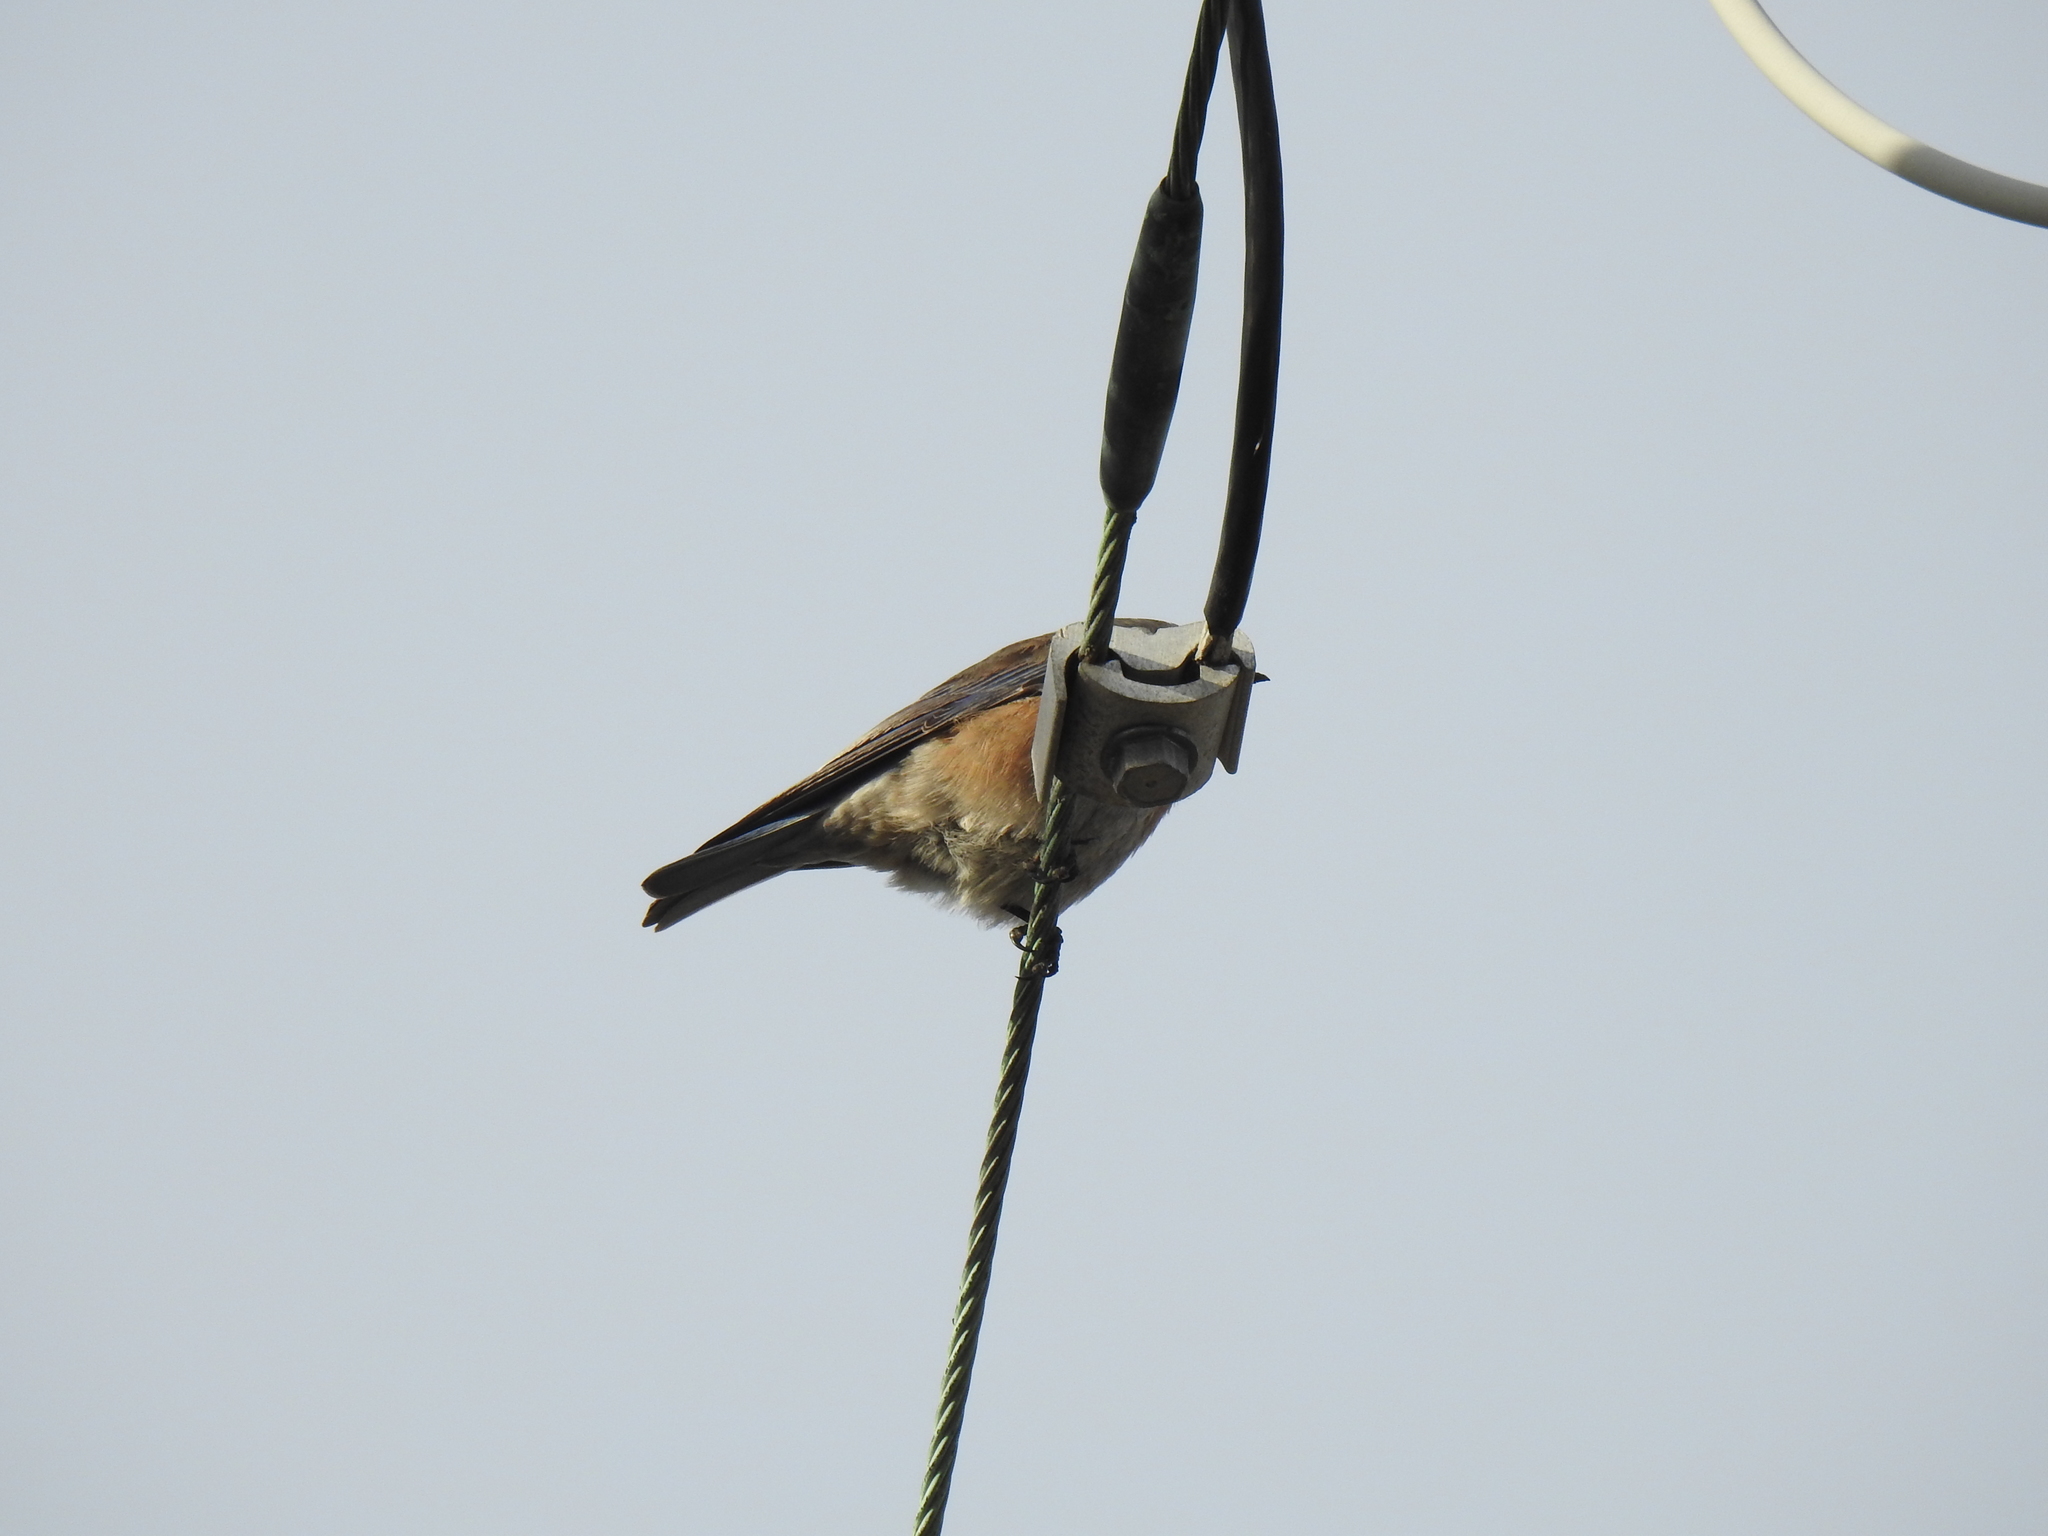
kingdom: Animalia
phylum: Chordata
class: Aves
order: Passeriformes
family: Turdidae
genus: Sialia
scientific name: Sialia mexicana
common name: Western bluebird
